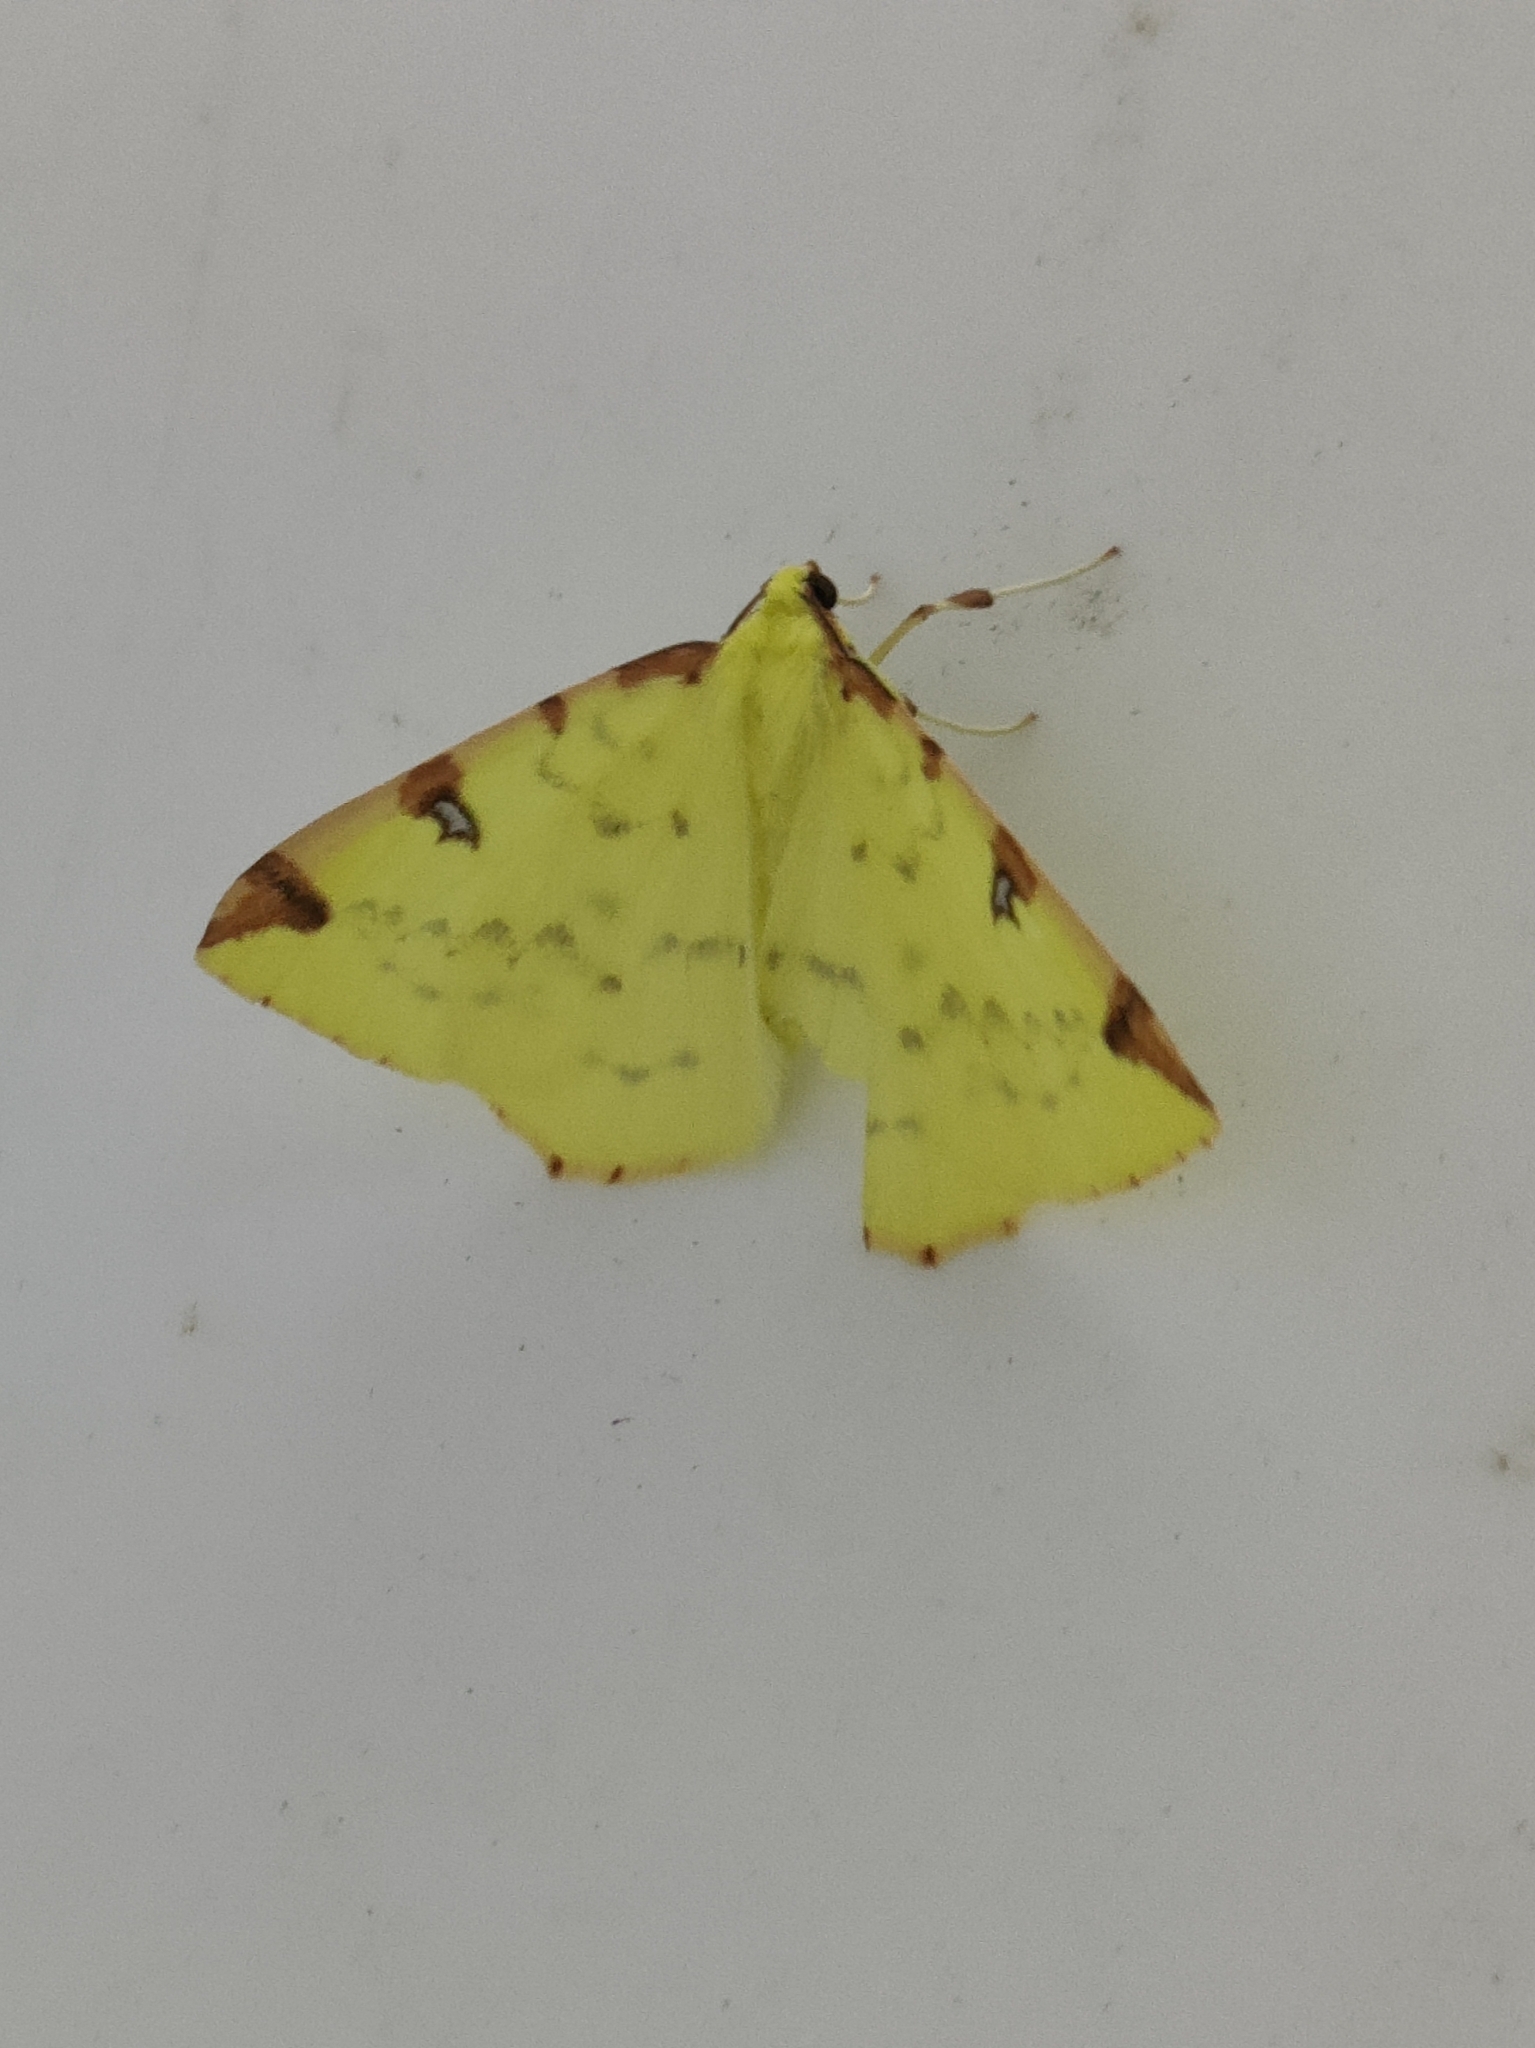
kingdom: Animalia
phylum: Arthropoda
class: Insecta
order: Lepidoptera
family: Geometridae
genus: Opisthograptis
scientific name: Opisthograptis luteolata
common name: Brimstone moth
